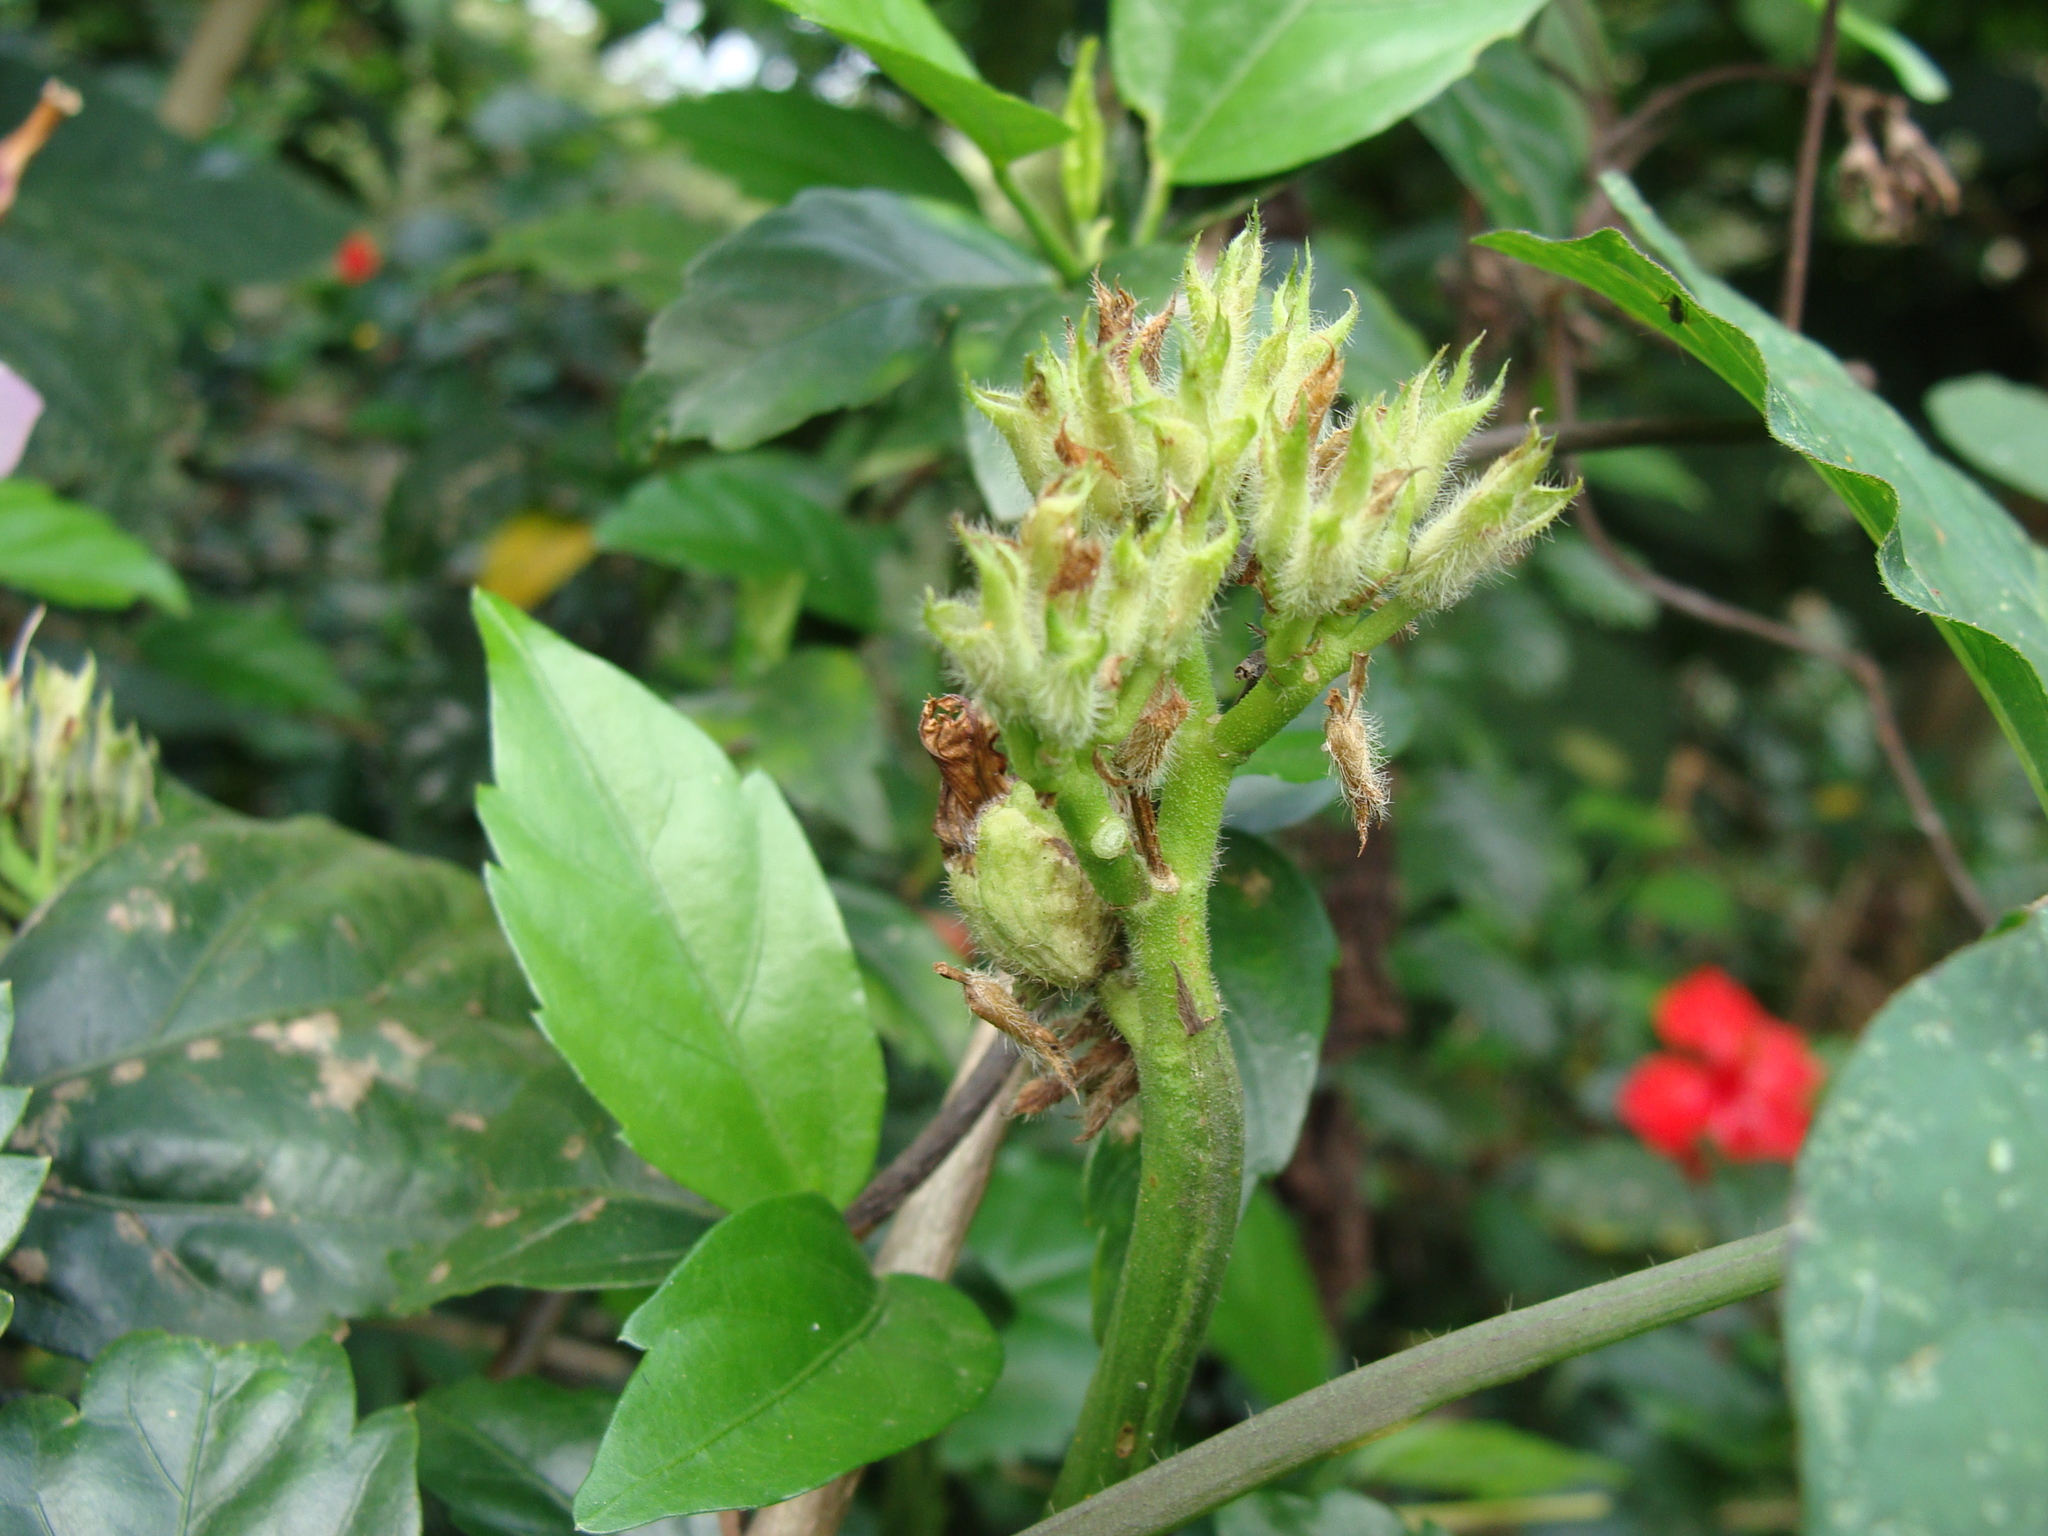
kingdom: Plantae
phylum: Tracheophyta
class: Magnoliopsida
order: Solanales
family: Convolvulaceae
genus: Ipomoea
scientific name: Ipomoea batatas
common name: Sweet-potato
